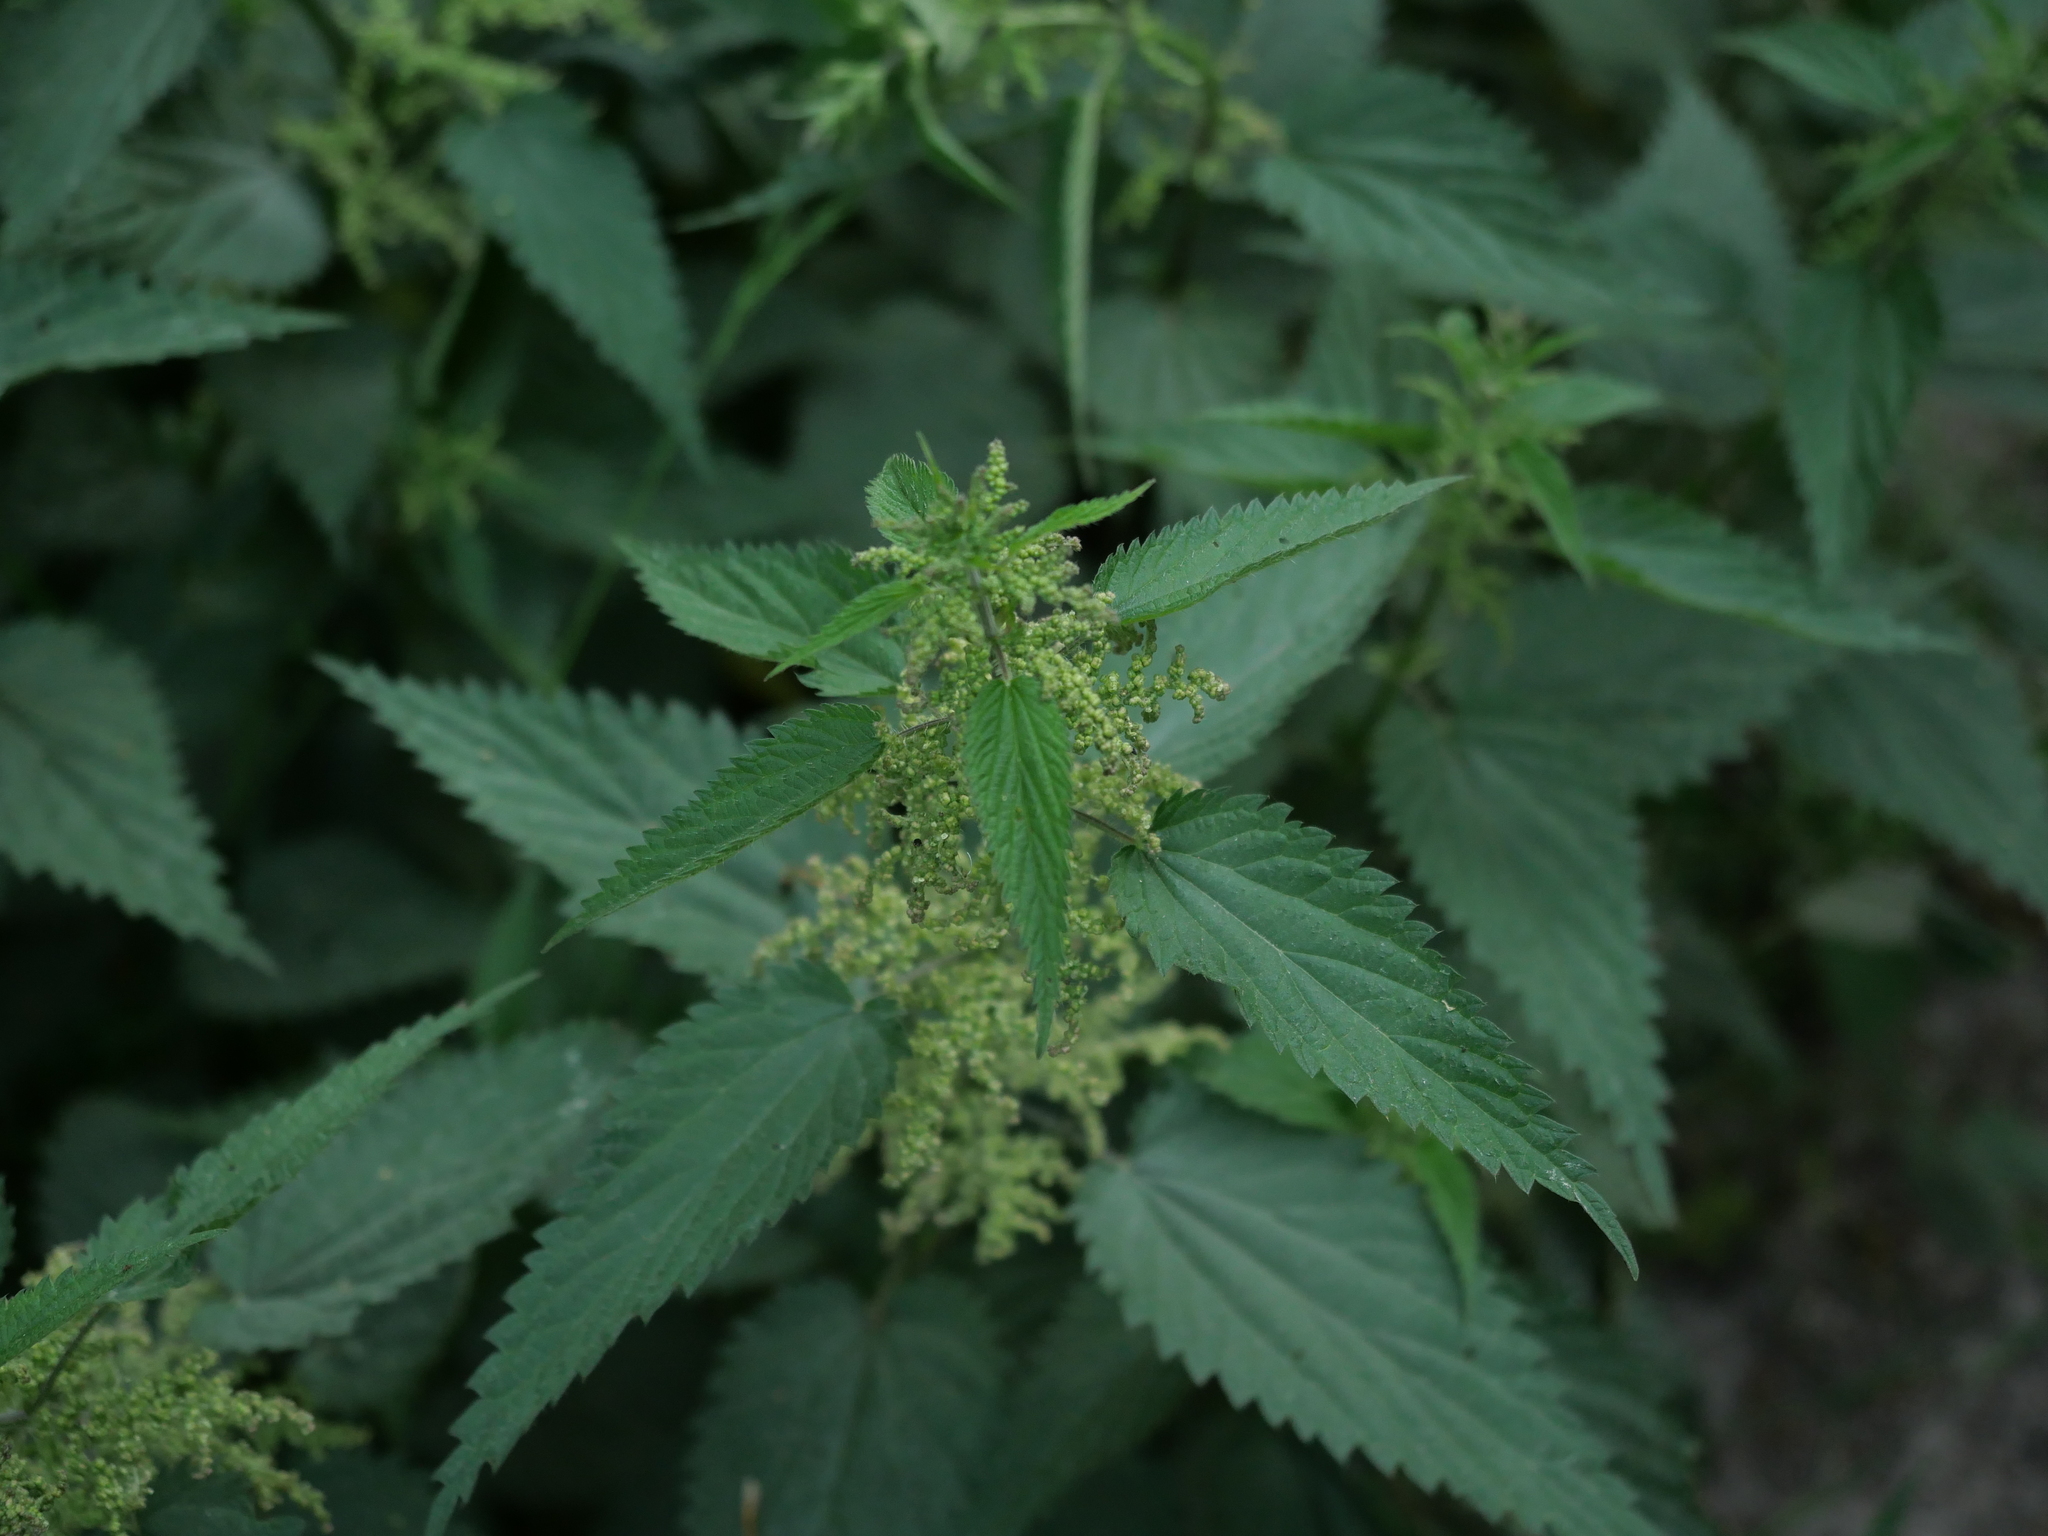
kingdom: Plantae
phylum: Tracheophyta
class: Magnoliopsida
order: Rosales
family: Urticaceae
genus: Urtica
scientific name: Urtica dioica
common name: Common nettle
